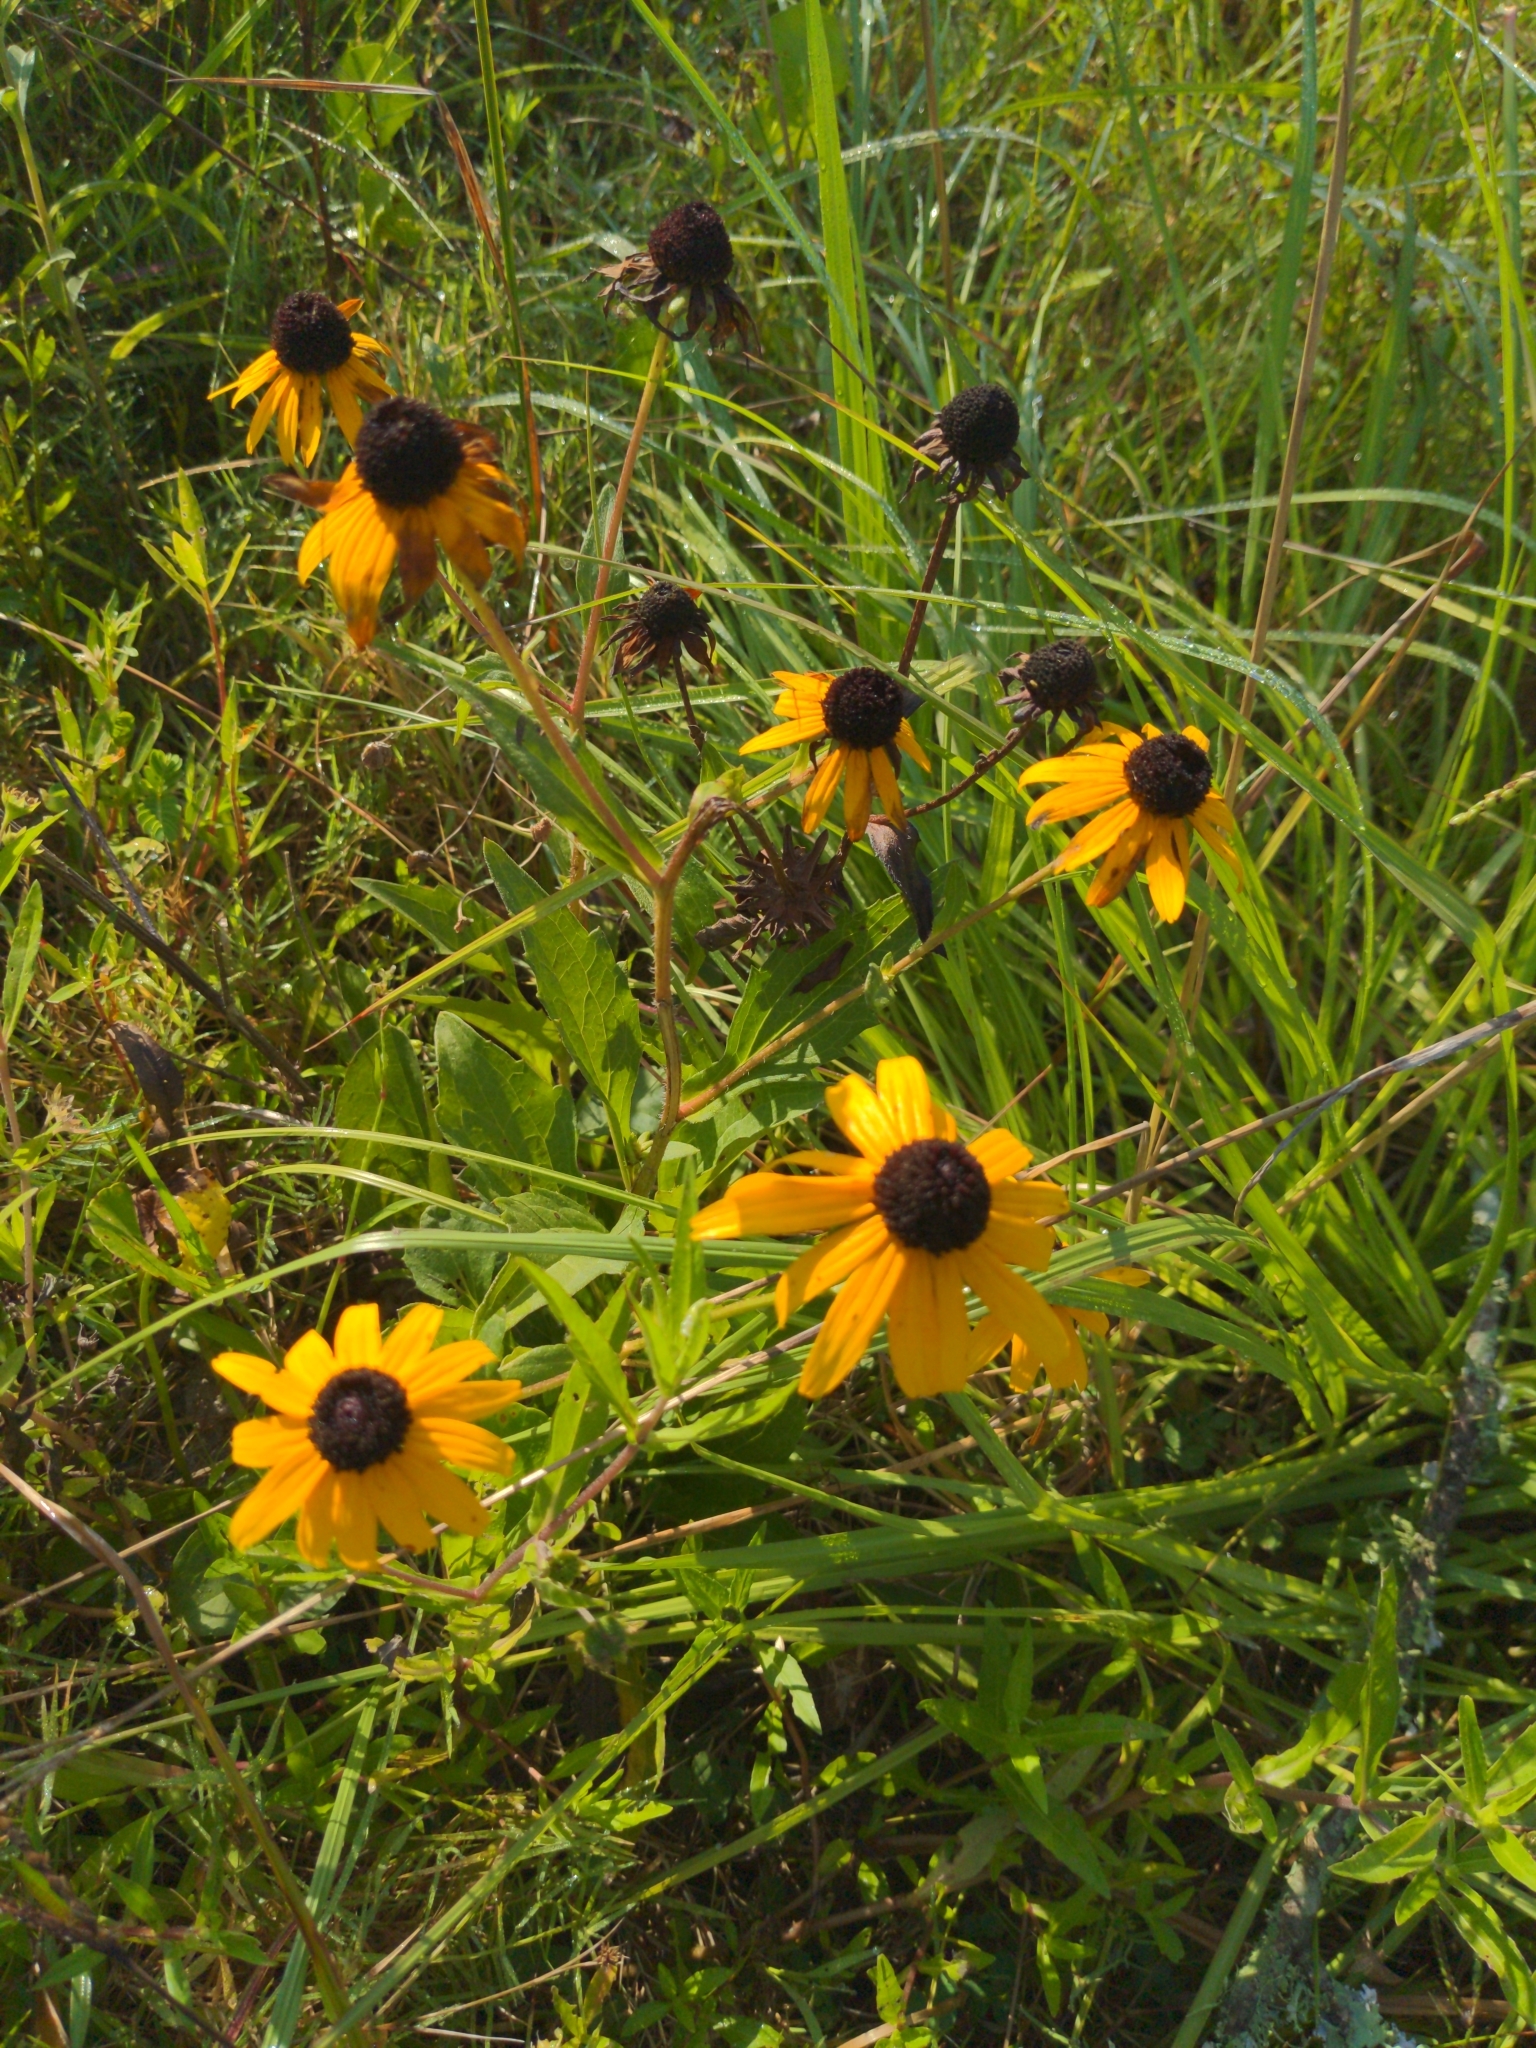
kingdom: Plantae
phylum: Tracheophyta
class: Magnoliopsida
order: Asterales
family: Asteraceae
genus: Rudbeckia
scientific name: Rudbeckia hirta
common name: Black-eyed-susan
